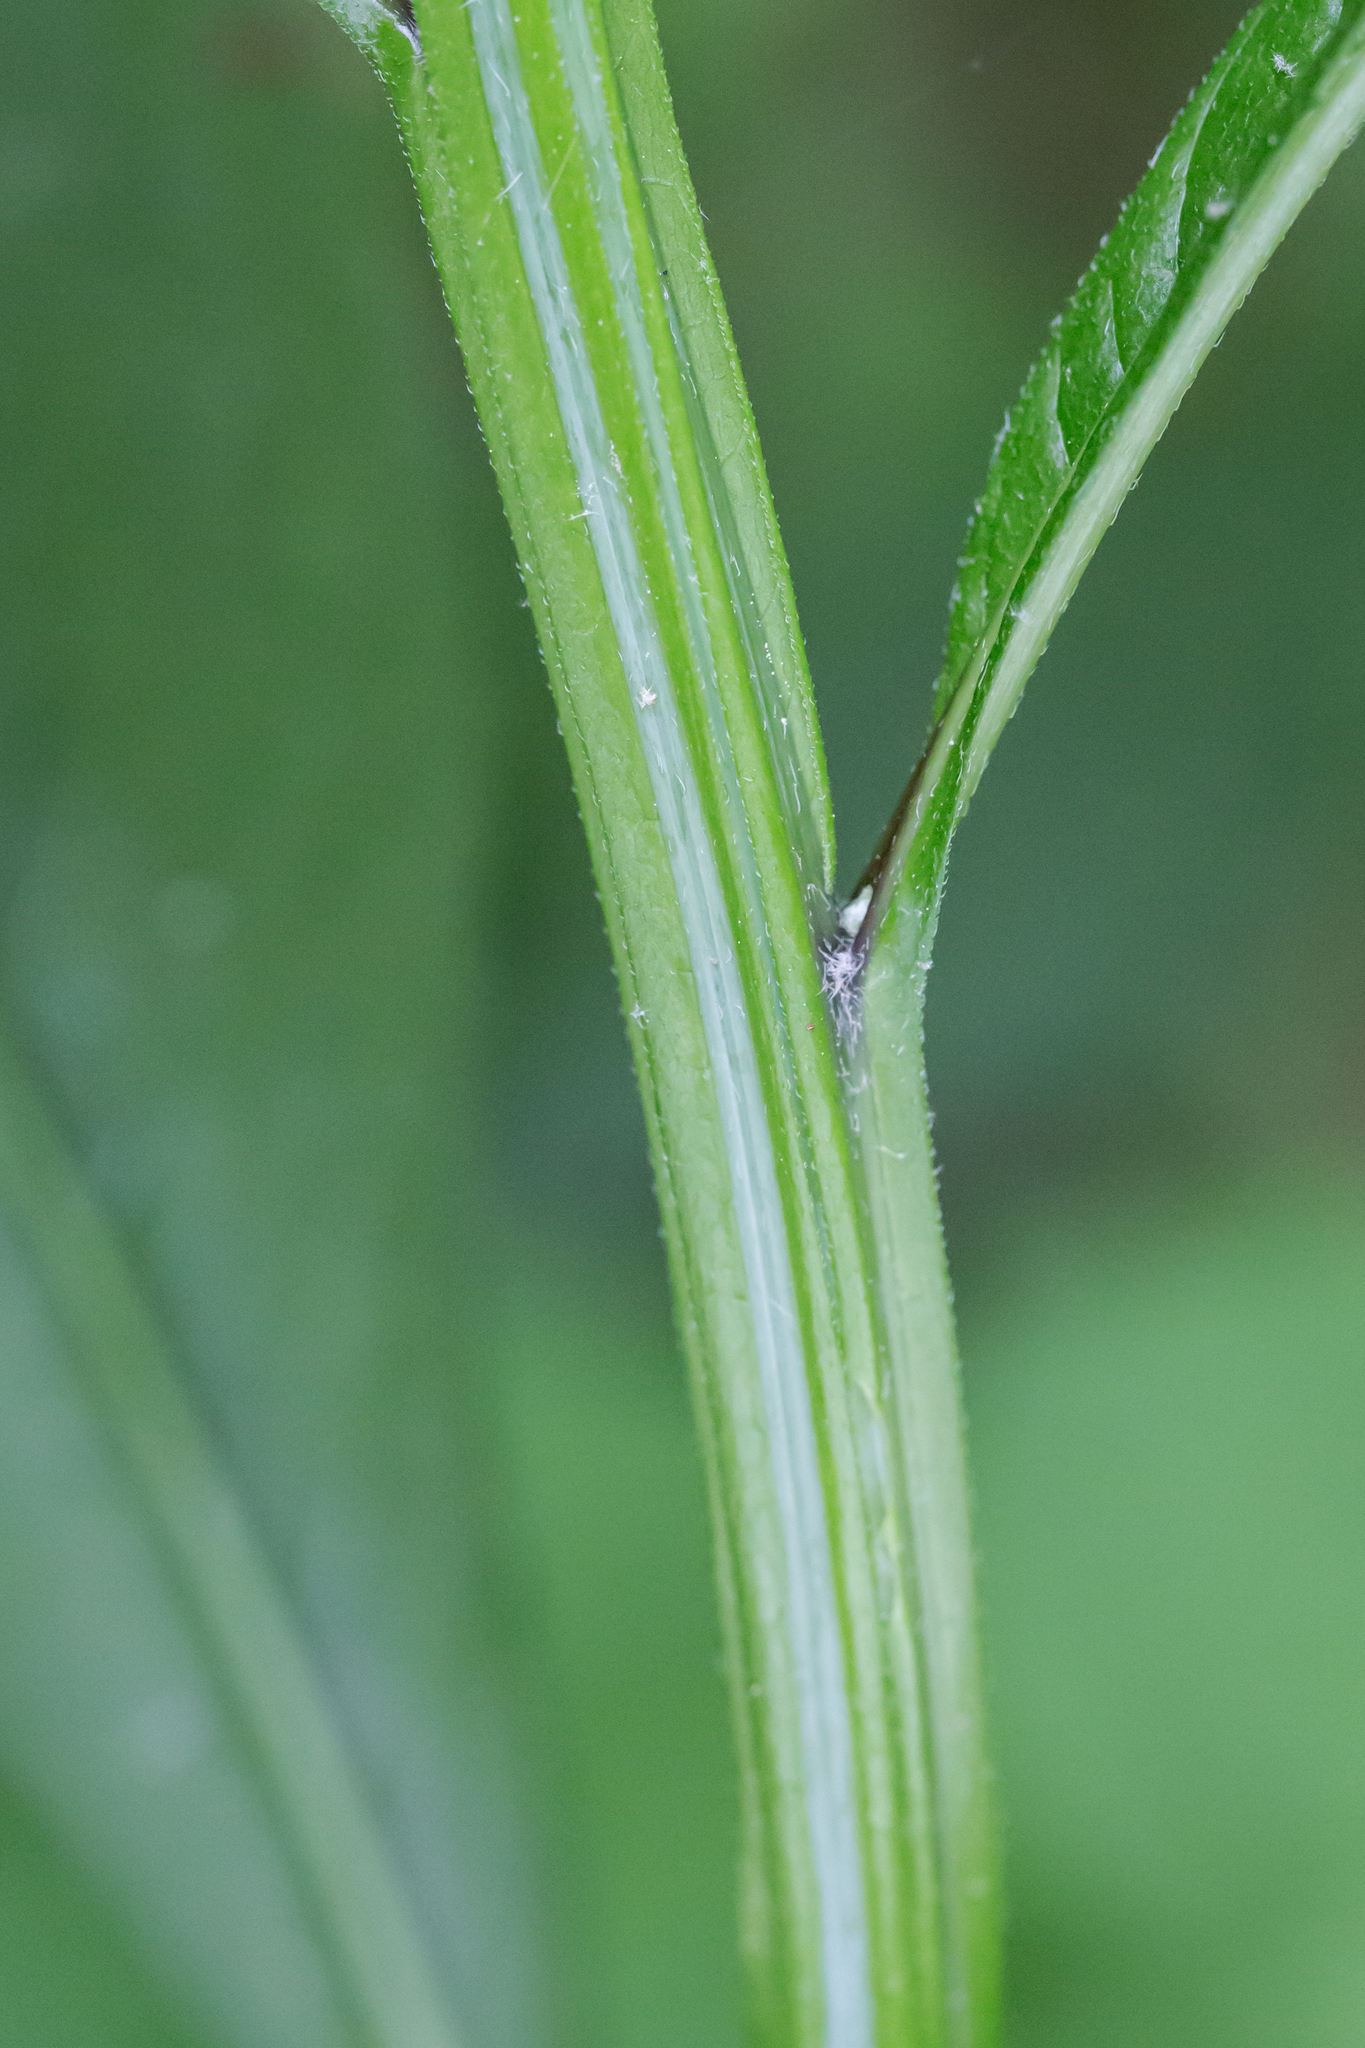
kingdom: Plantae
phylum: Tracheophyta
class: Magnoliopsida
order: Asterales
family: Asteraceae
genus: Verbesina
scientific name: Verbesina alternifolia
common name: Wingstem
